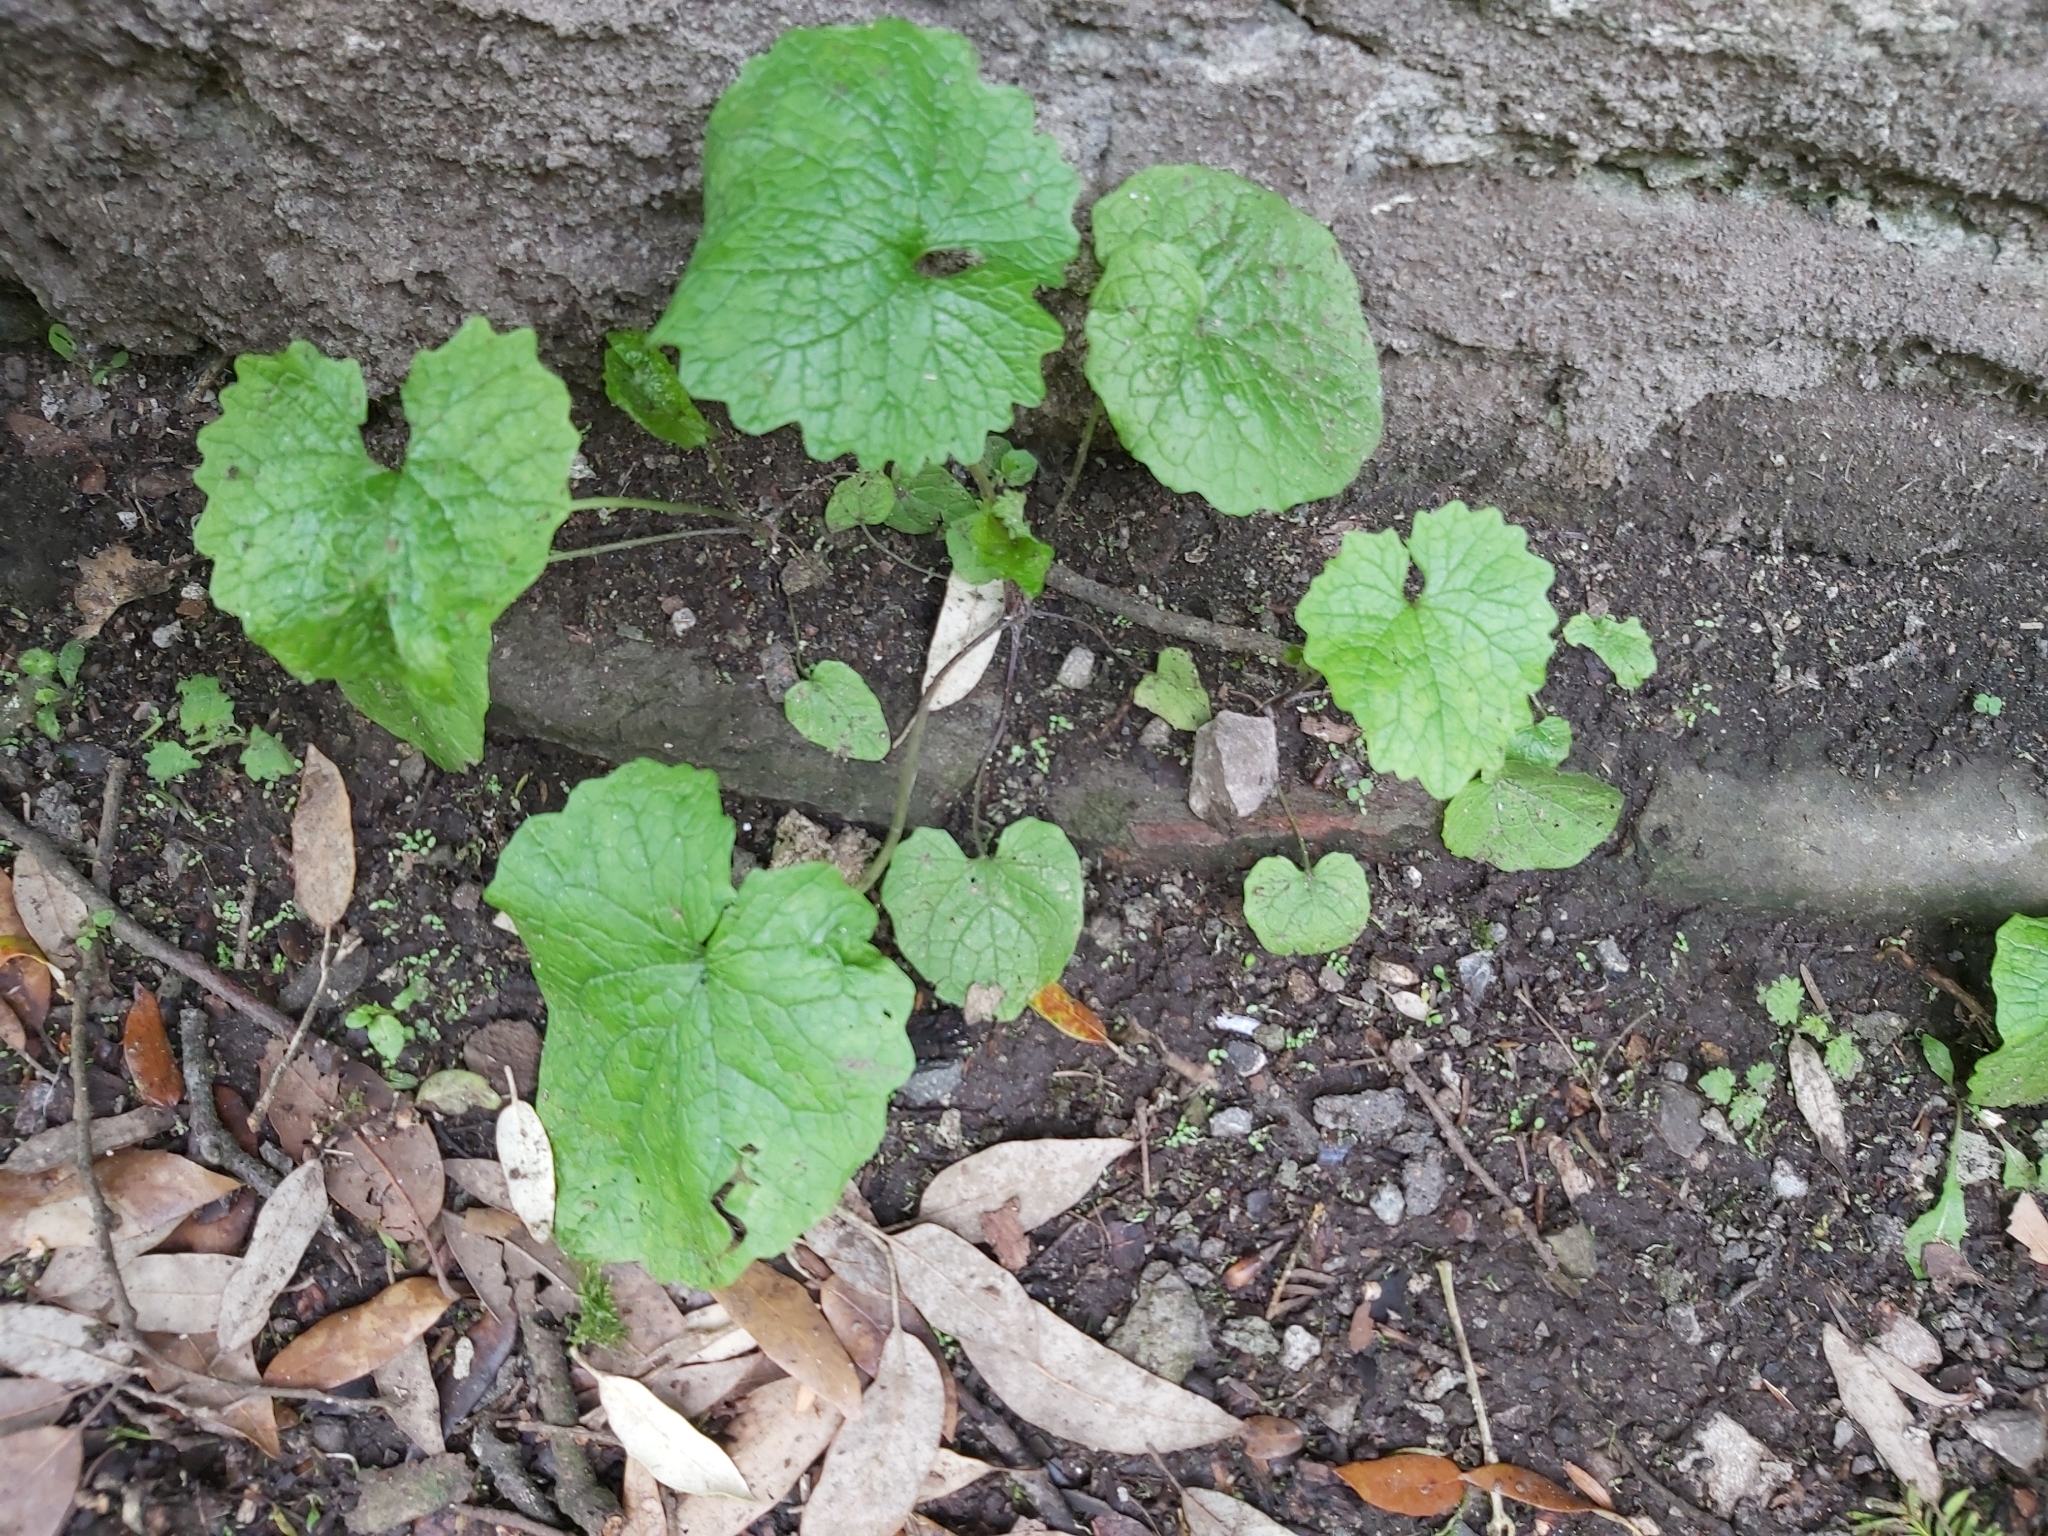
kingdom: Plantae
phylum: Tracheophyta
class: Magnoliopsida
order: Brassicales
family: Brassicaceae
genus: Alliaria
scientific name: Alliaria petiolata
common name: Garlic mustard
